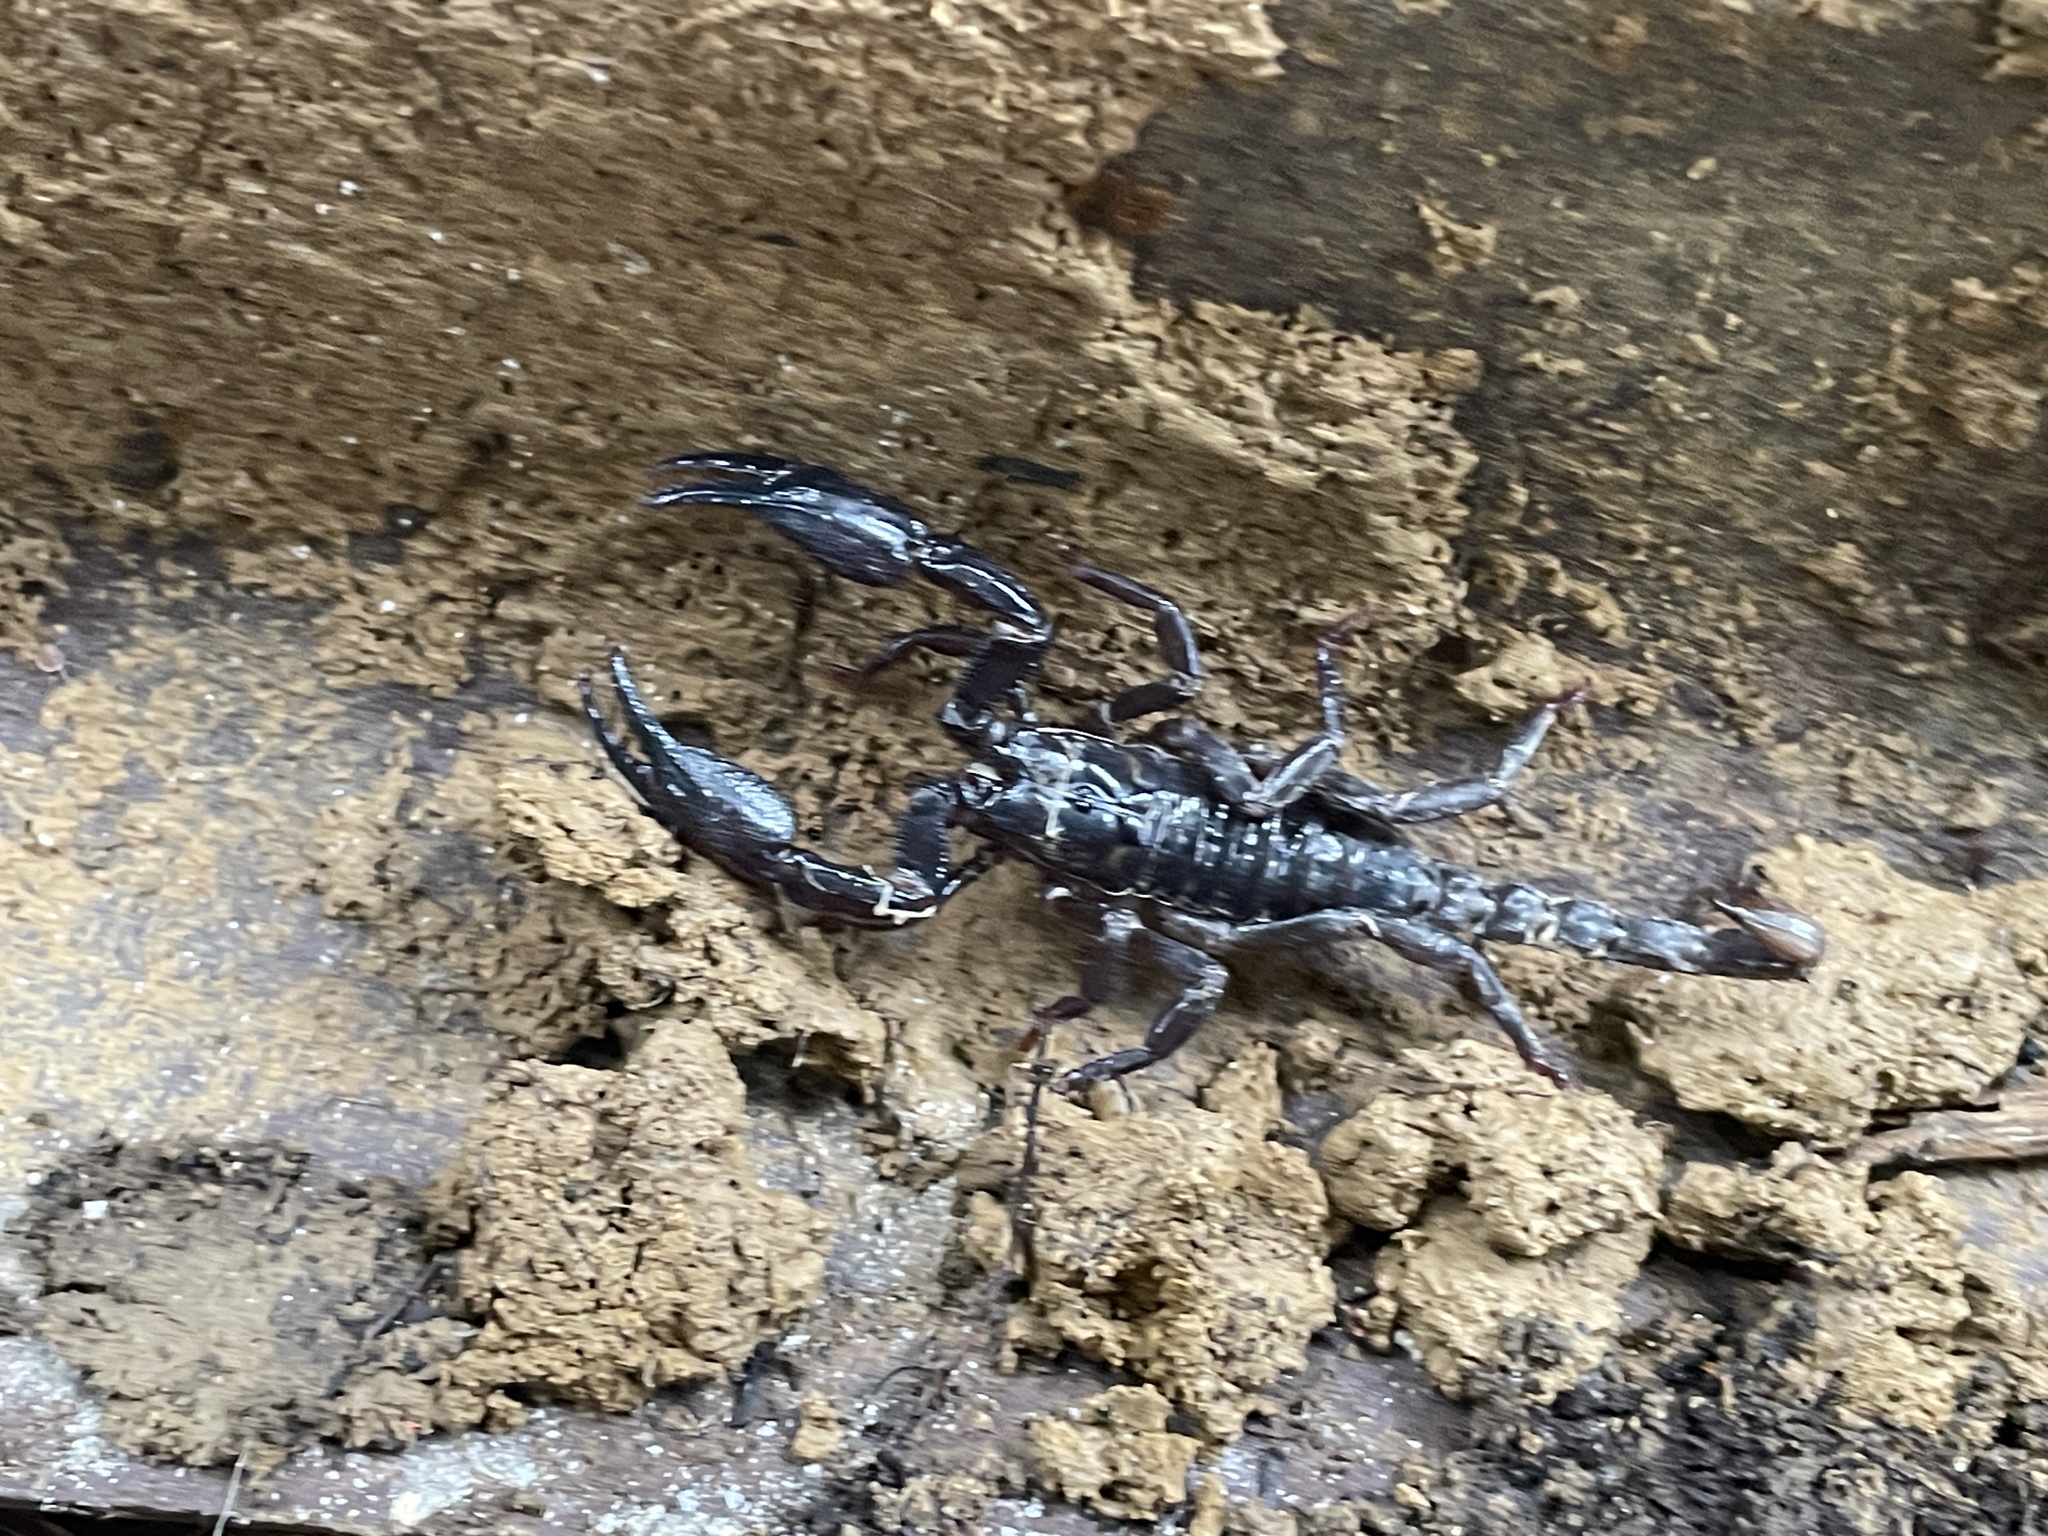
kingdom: Animalia
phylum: Arthropoda
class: Arachnida
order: Scorpiones
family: Scorpionidae
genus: Heterometrus
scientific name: Heterometrus laevigatus
